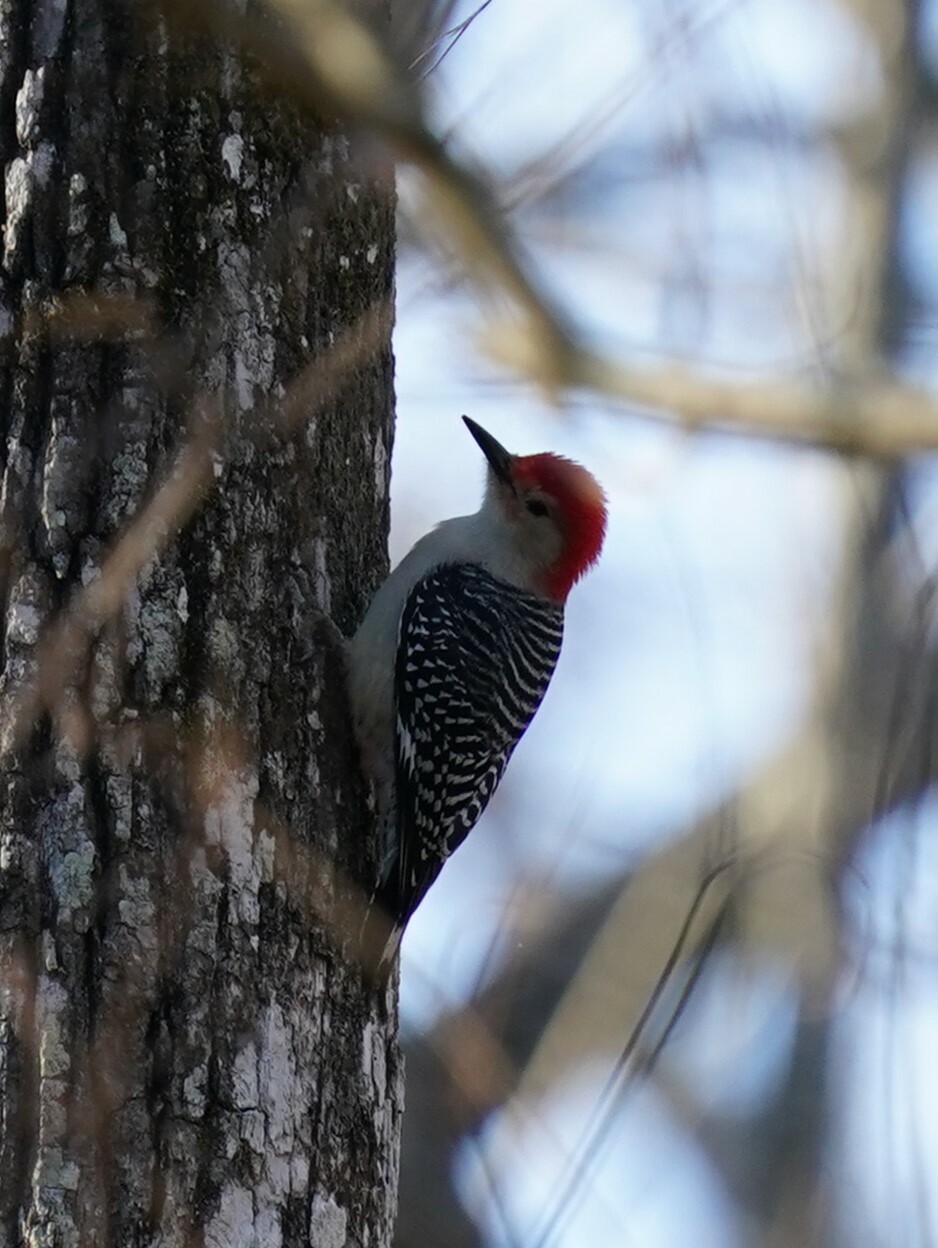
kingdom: Animalia
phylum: Chordata
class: Aves
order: Piciformes
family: Picidae
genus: Melanerpes
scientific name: Melanerpes carolinus
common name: Red-bellied woodpecker
